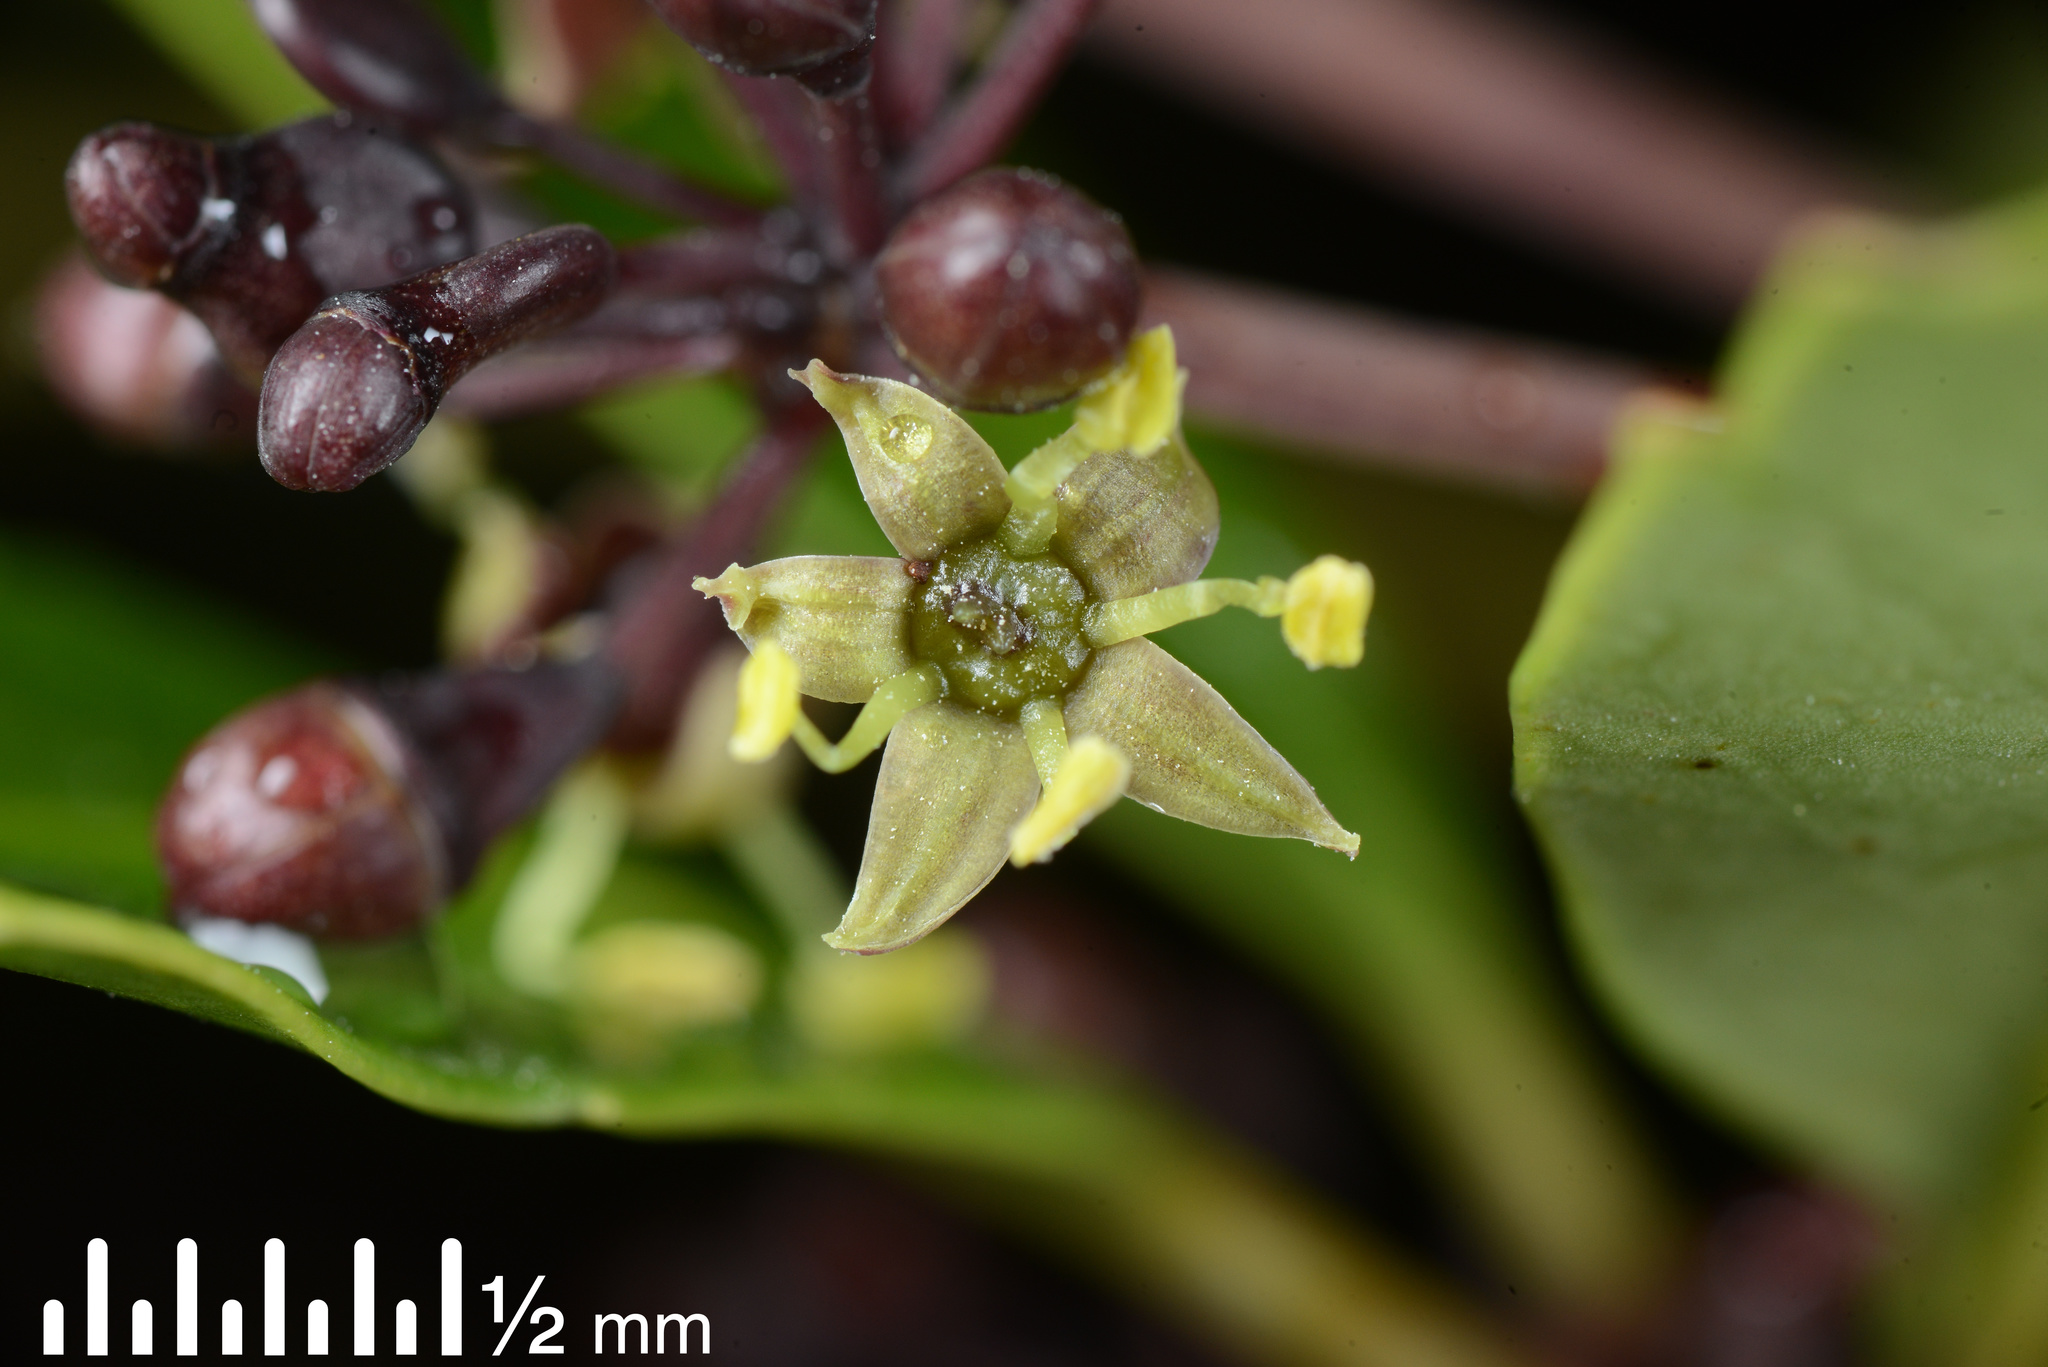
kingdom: Plantae
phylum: Tracheophyta
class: Magnoliopsida
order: Apiales
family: Araliaceae
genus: Neopanax
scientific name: Neopanax arboreus
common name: Five-fingers
